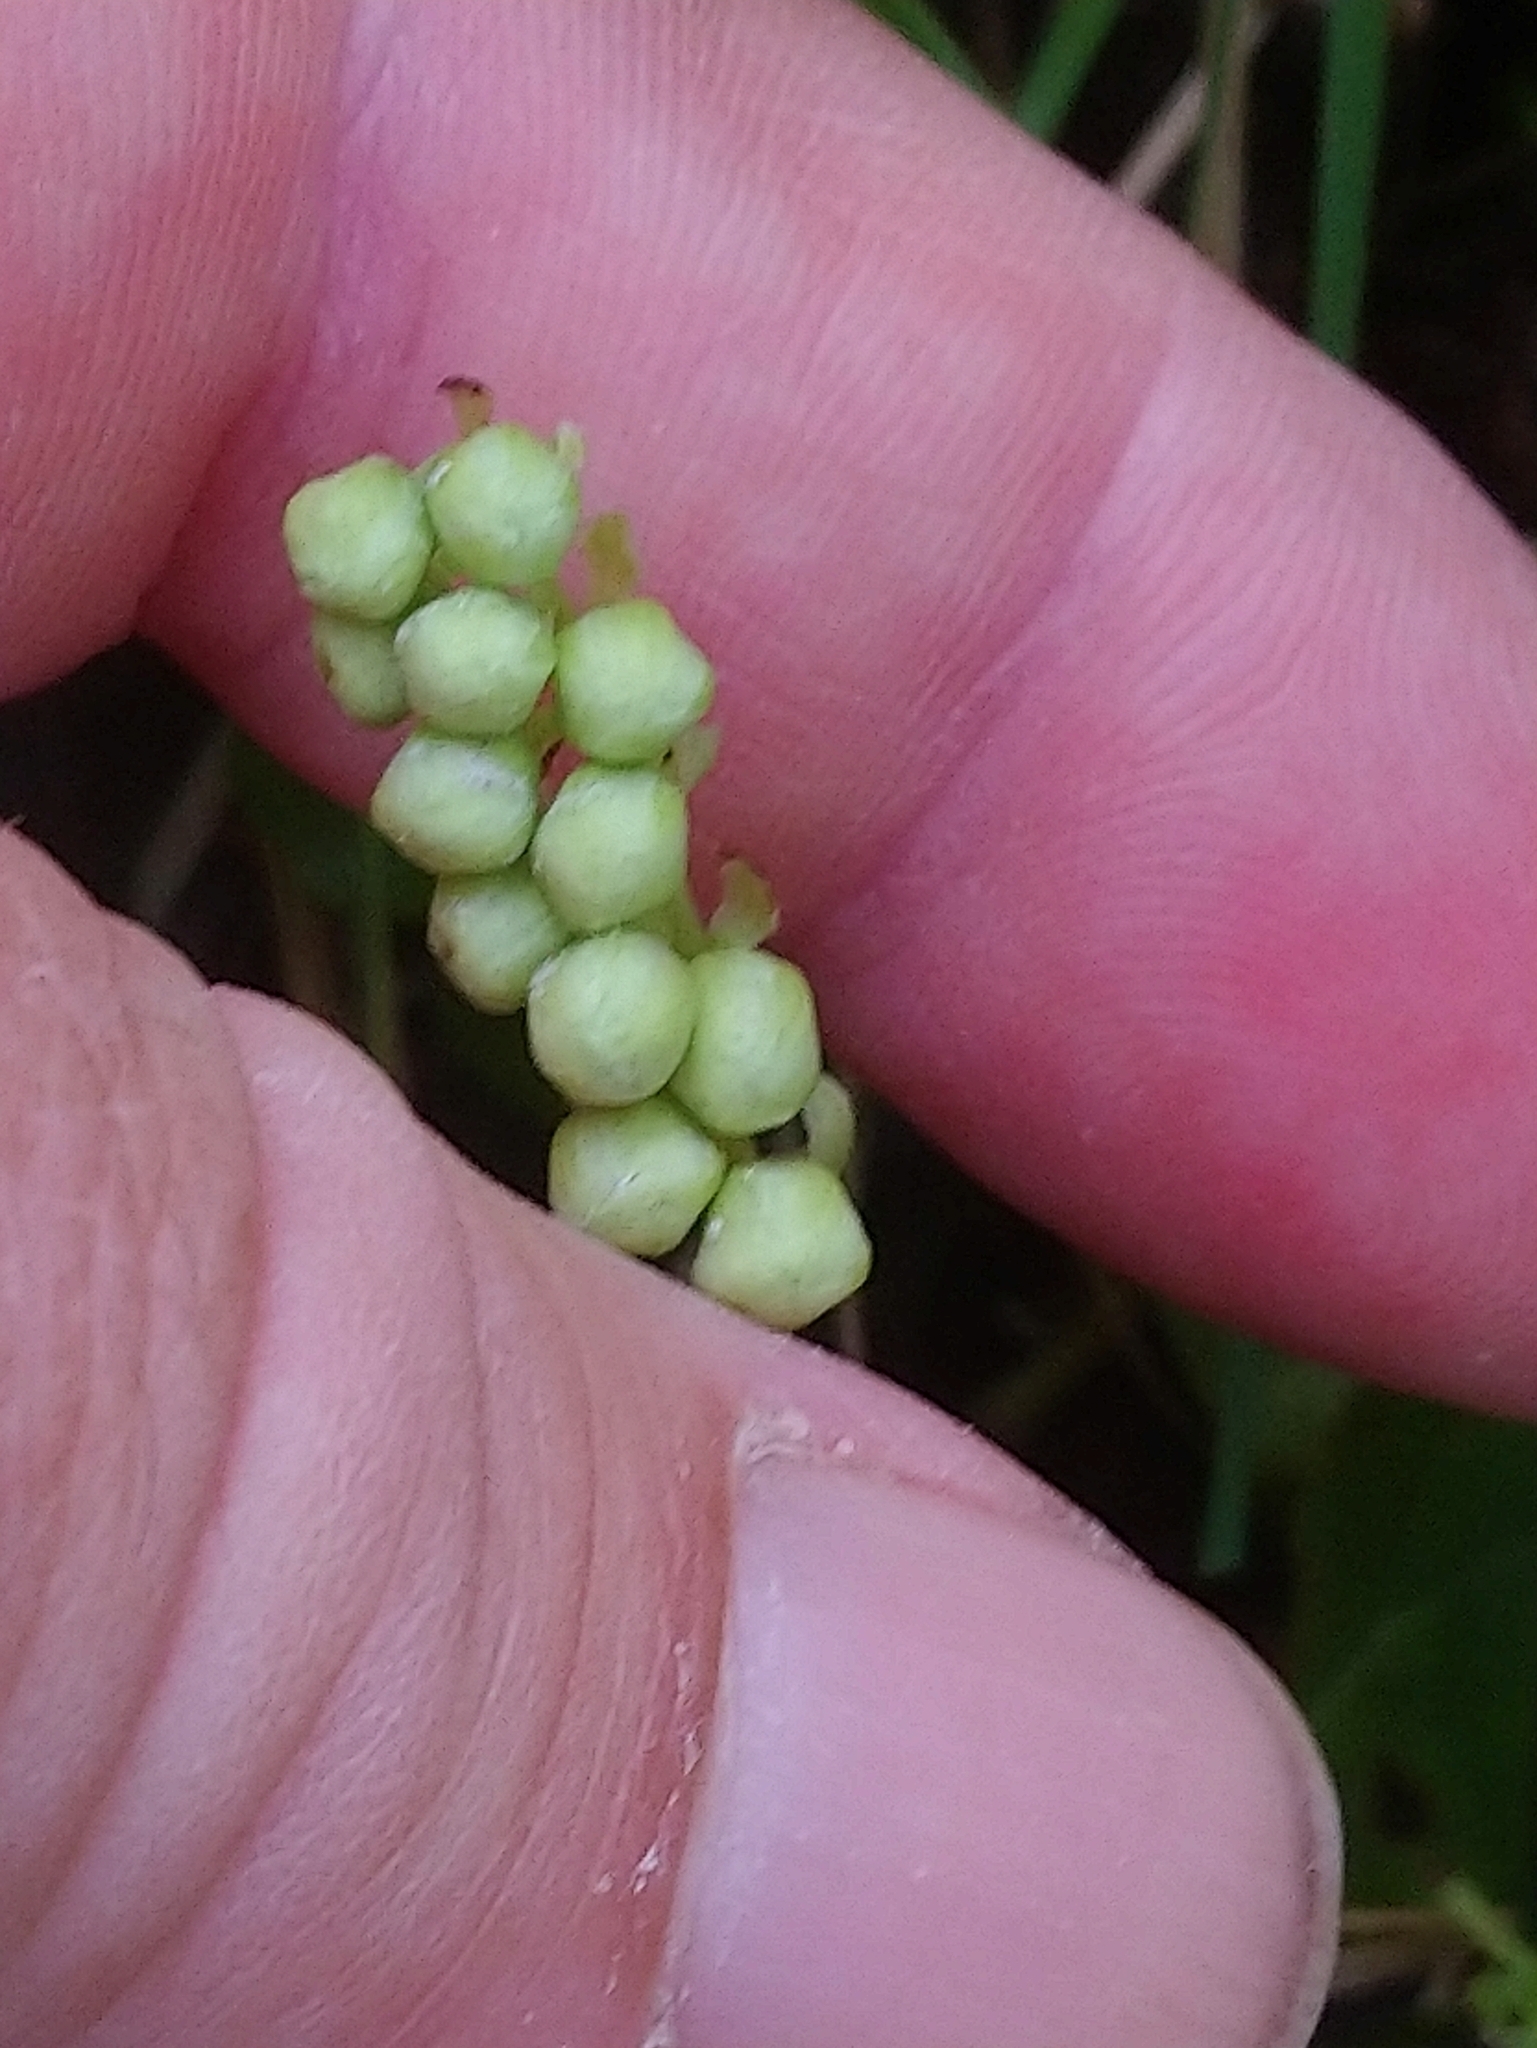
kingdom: Plantae
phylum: Tracheophyta
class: Magnoliopsida
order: Ericales
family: Ericaceae
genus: Orthilia
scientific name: Orthilia secunda
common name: One-sided orthilia
